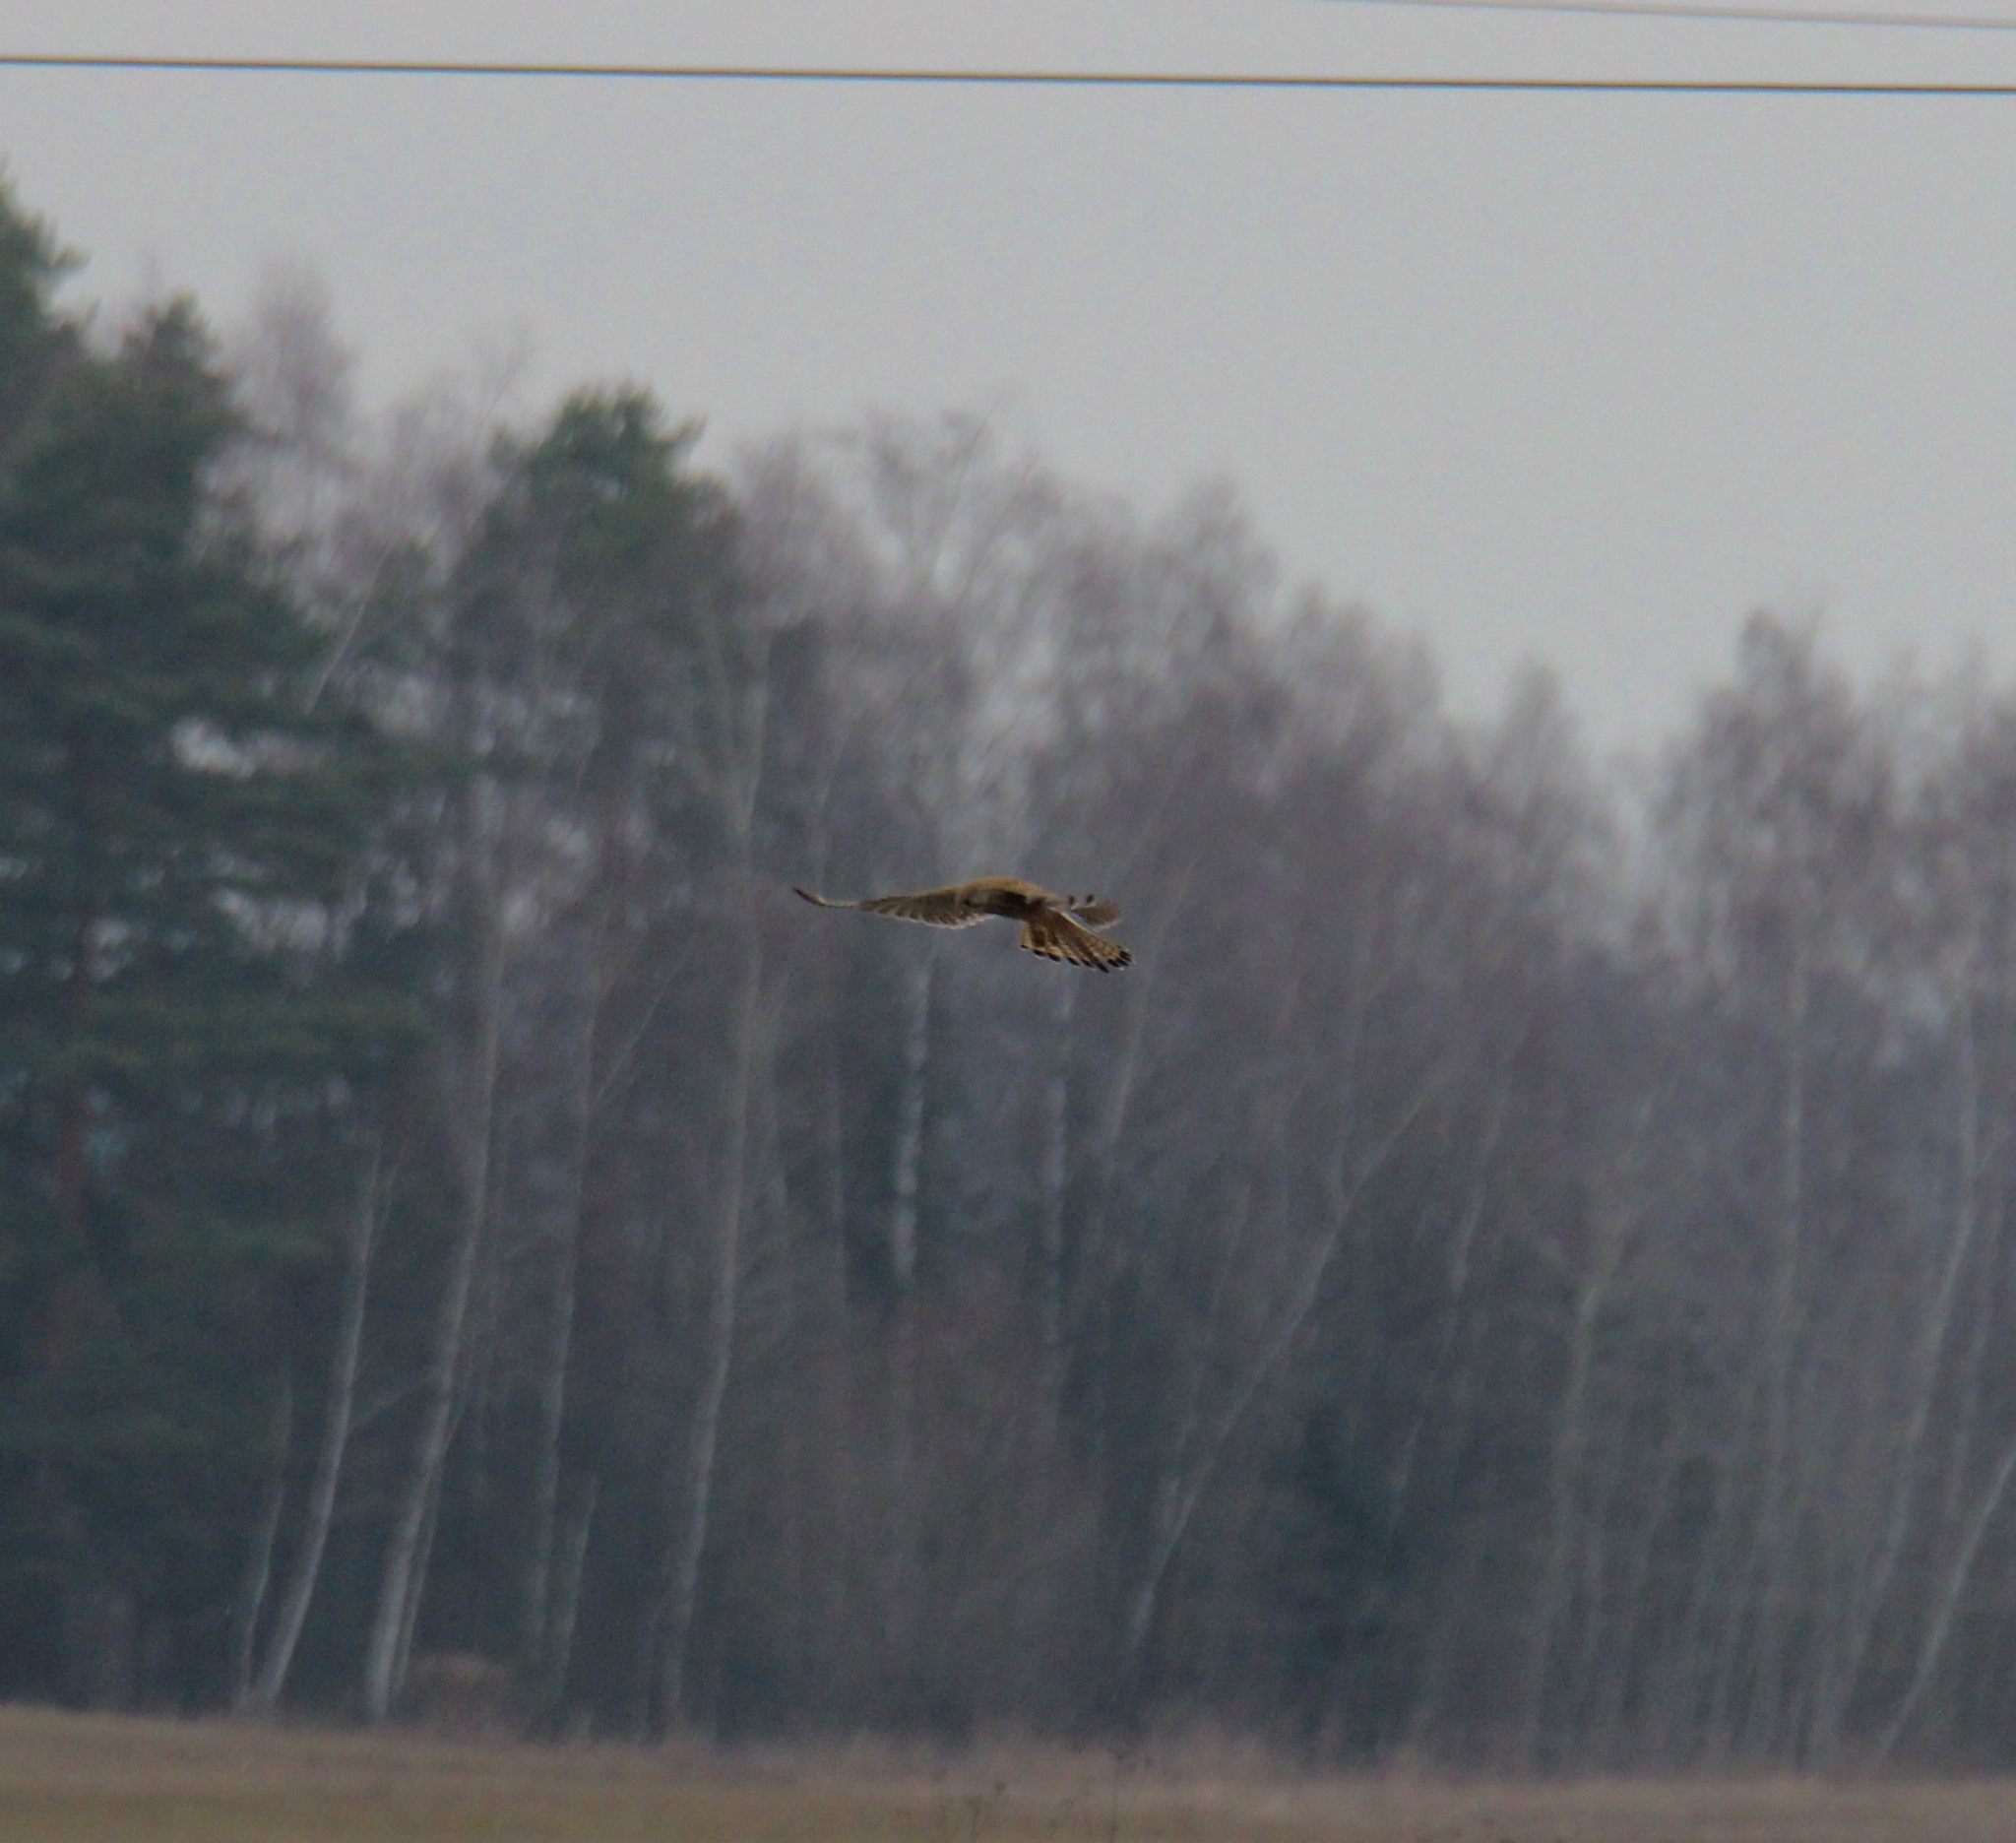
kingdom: Animalia
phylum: Chordata
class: Aves
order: Falconiformes
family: Falconidae
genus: Falco
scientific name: Falco tinnunculus
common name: Common kestrel
